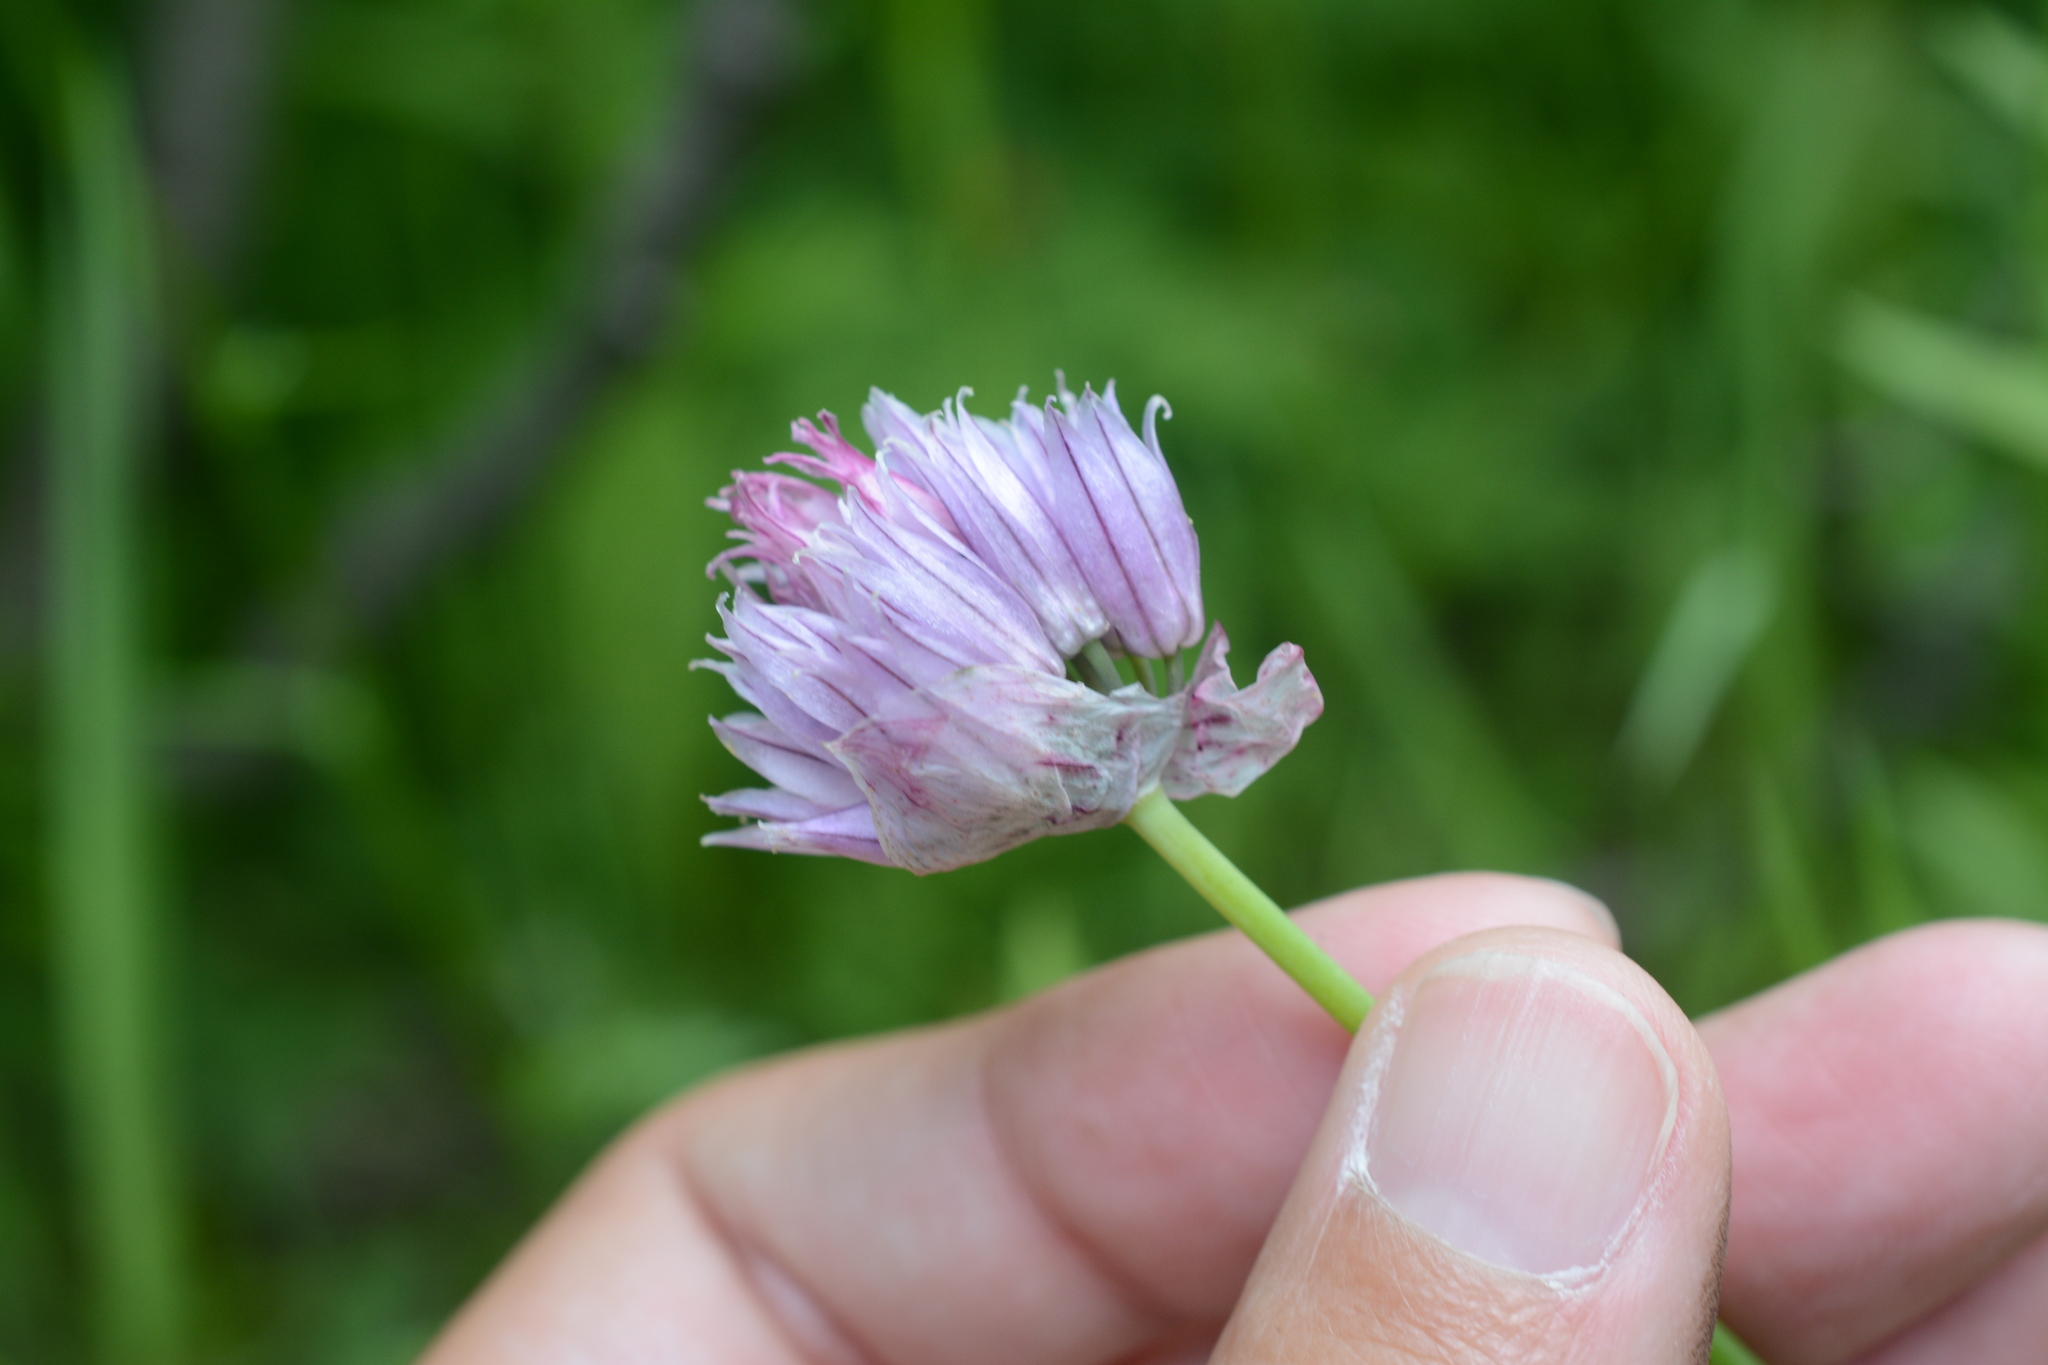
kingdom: Plantae
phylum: Tracheophyta
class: Liliopsida
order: Asparagales
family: Amaryllidaceae
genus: Allium
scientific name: Allium schoenoprasum
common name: Chives
